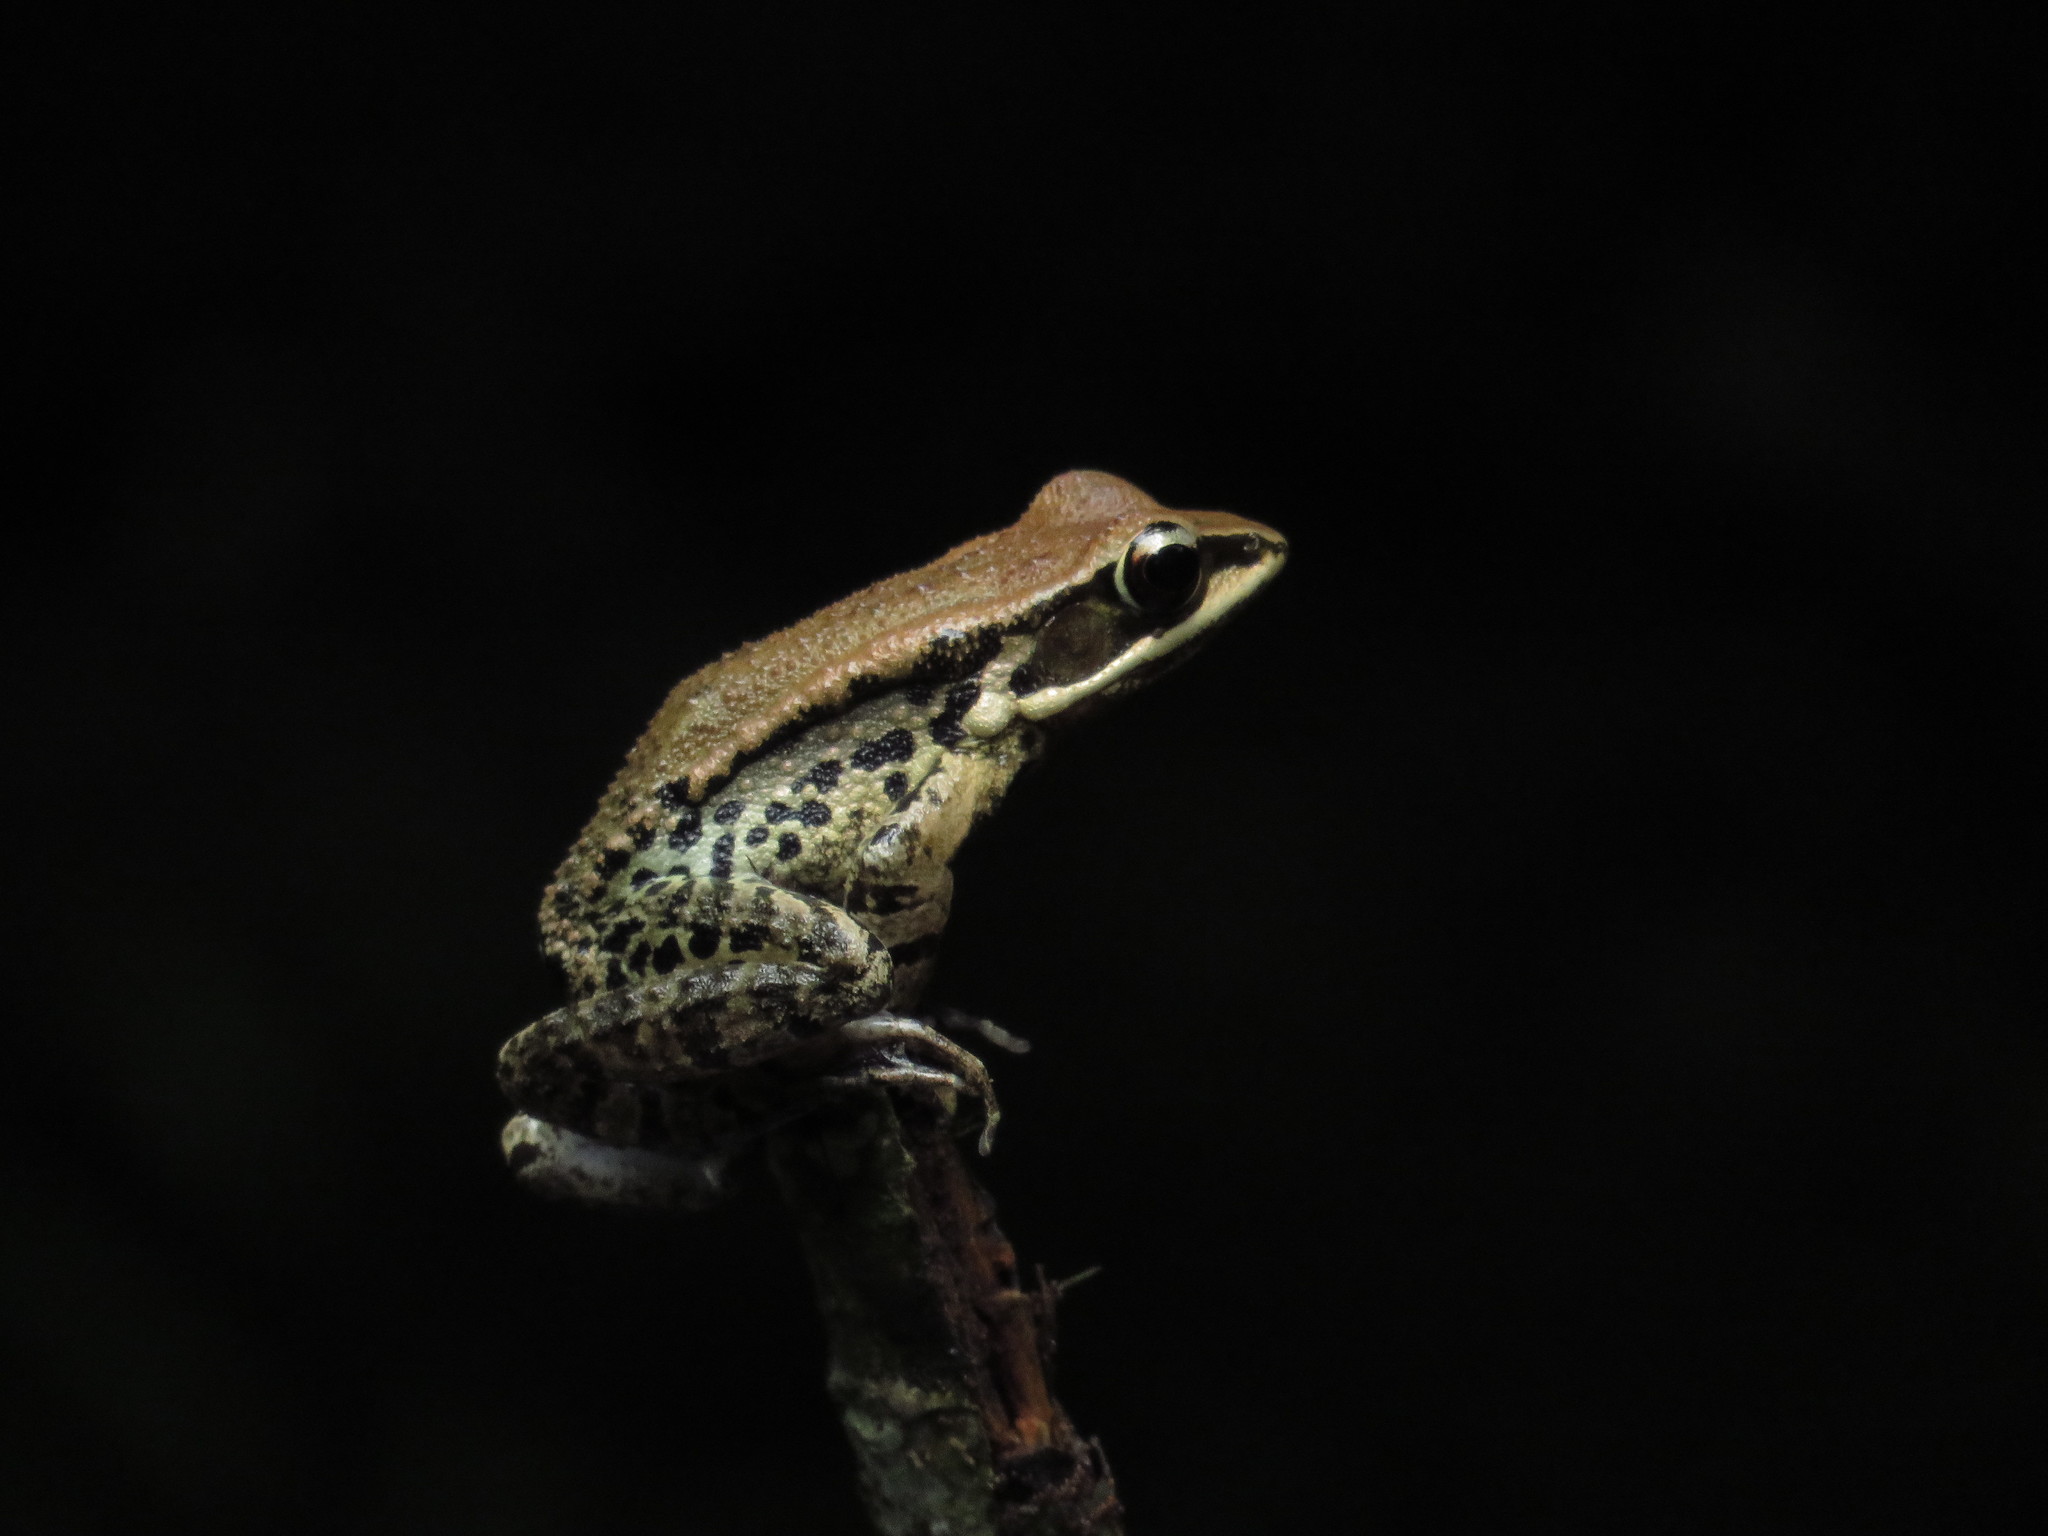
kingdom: Animalia
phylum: Chordata
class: Amphibia
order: Anura
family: Ranidae
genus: Hylarana
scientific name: Hylarana latouchii
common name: Broad-folded frog
